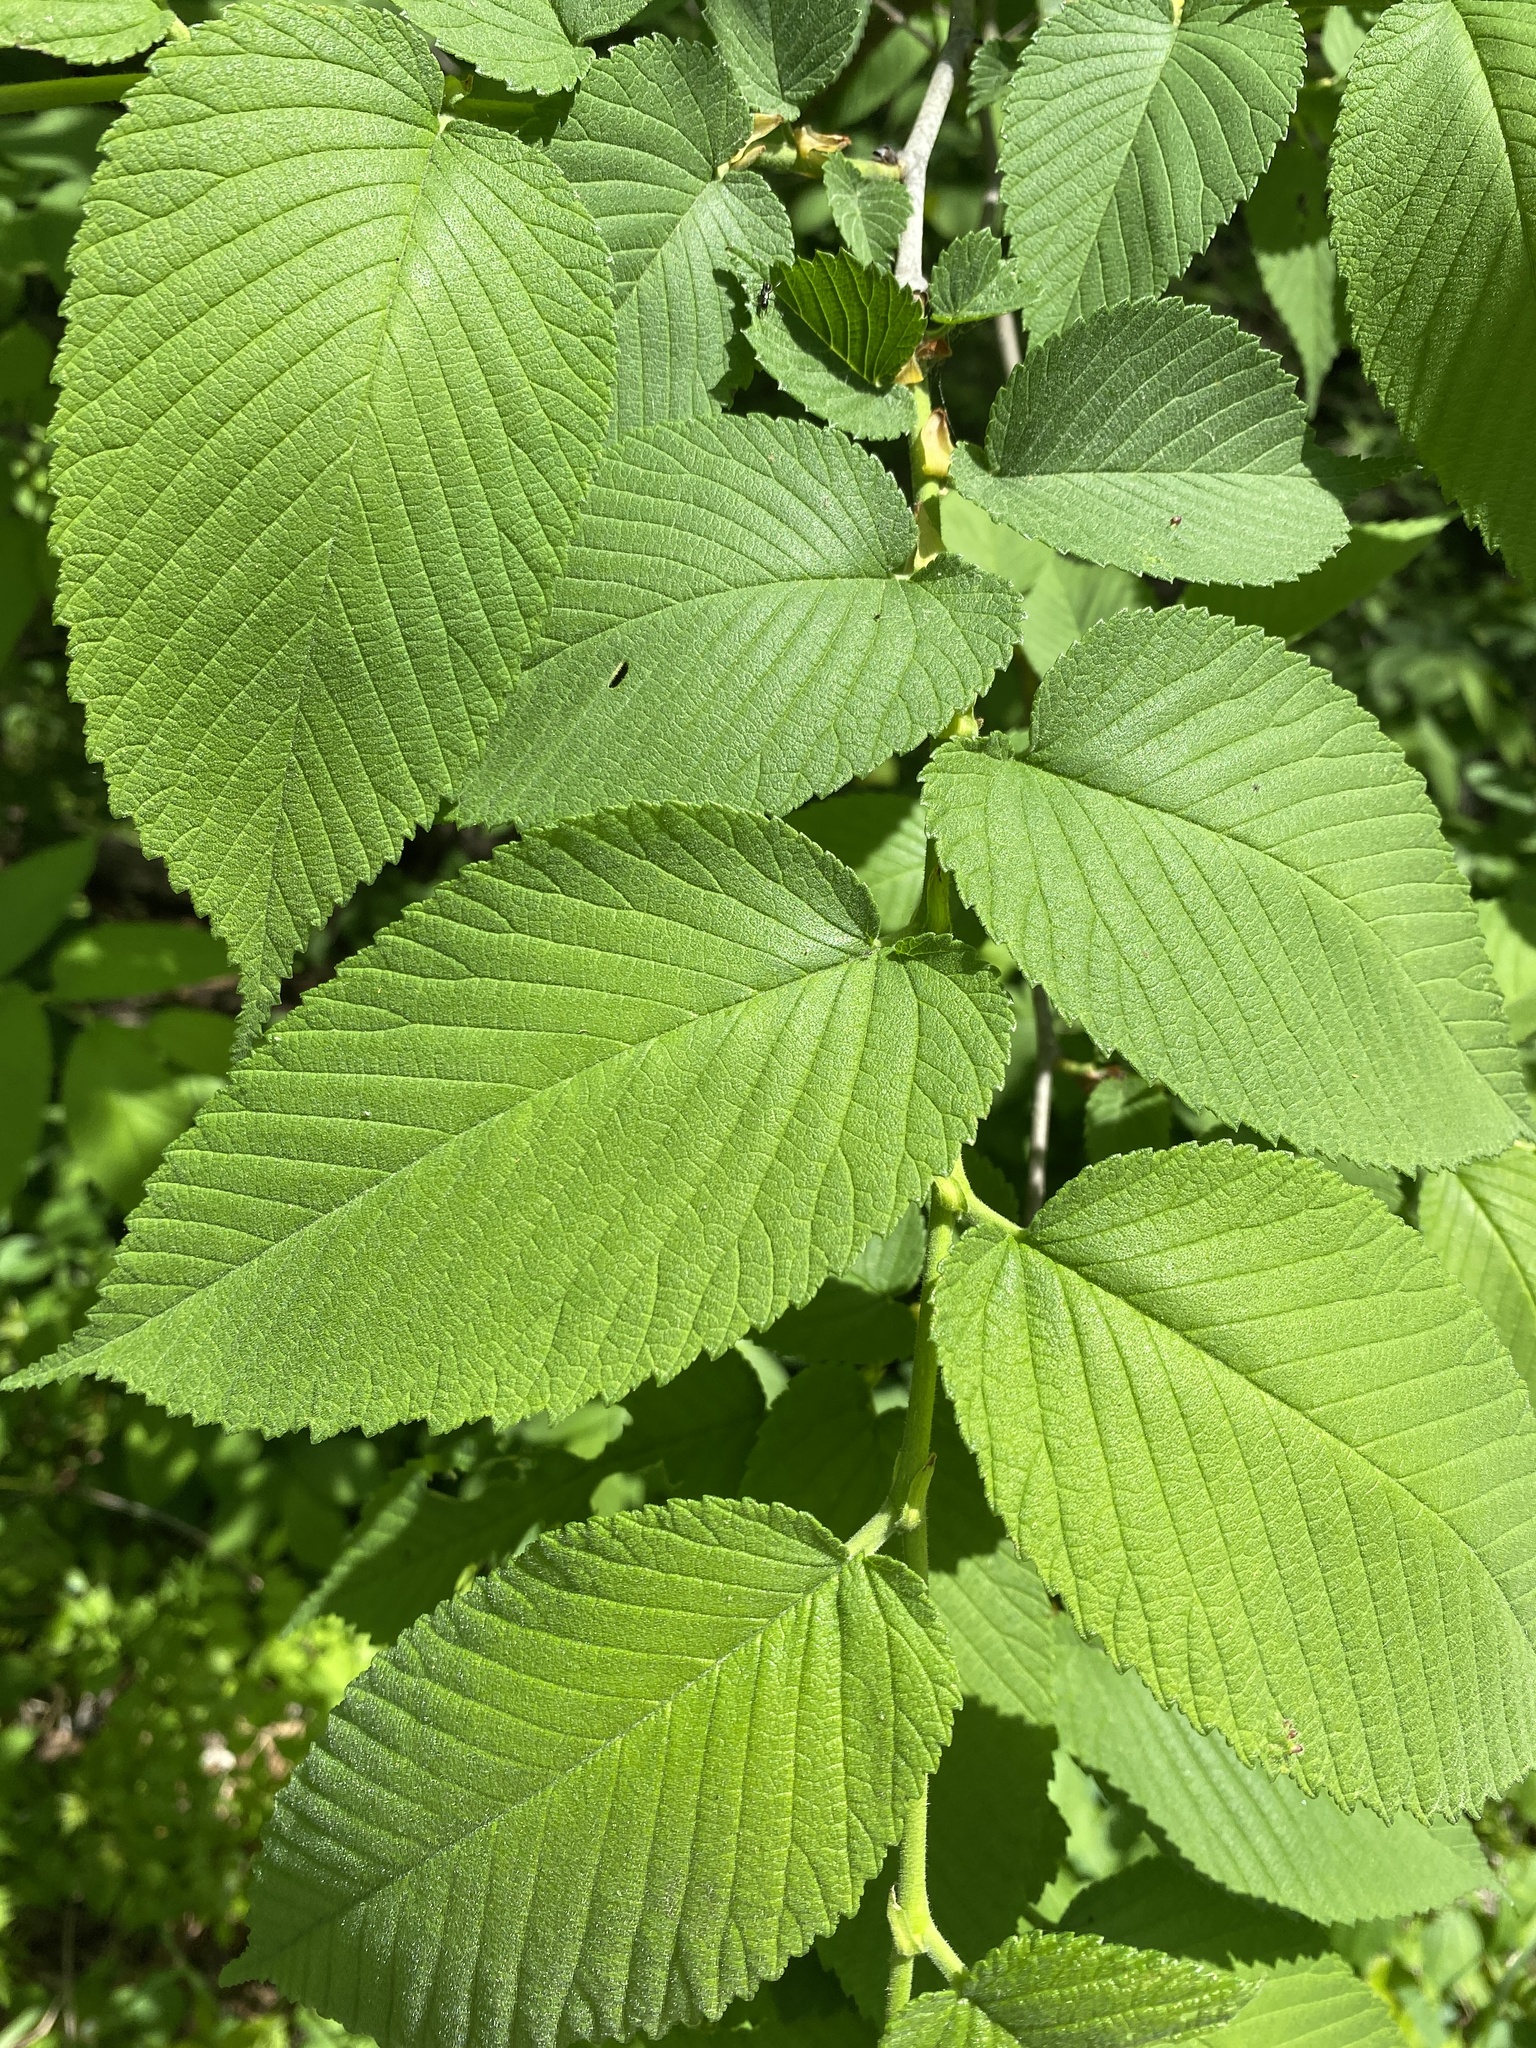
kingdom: Plantae
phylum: Tracheophyta
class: Magnoliopsida
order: Rosales
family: Ulmaceae
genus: Ulmus
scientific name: Ulmus rubra
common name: Slippery elm
